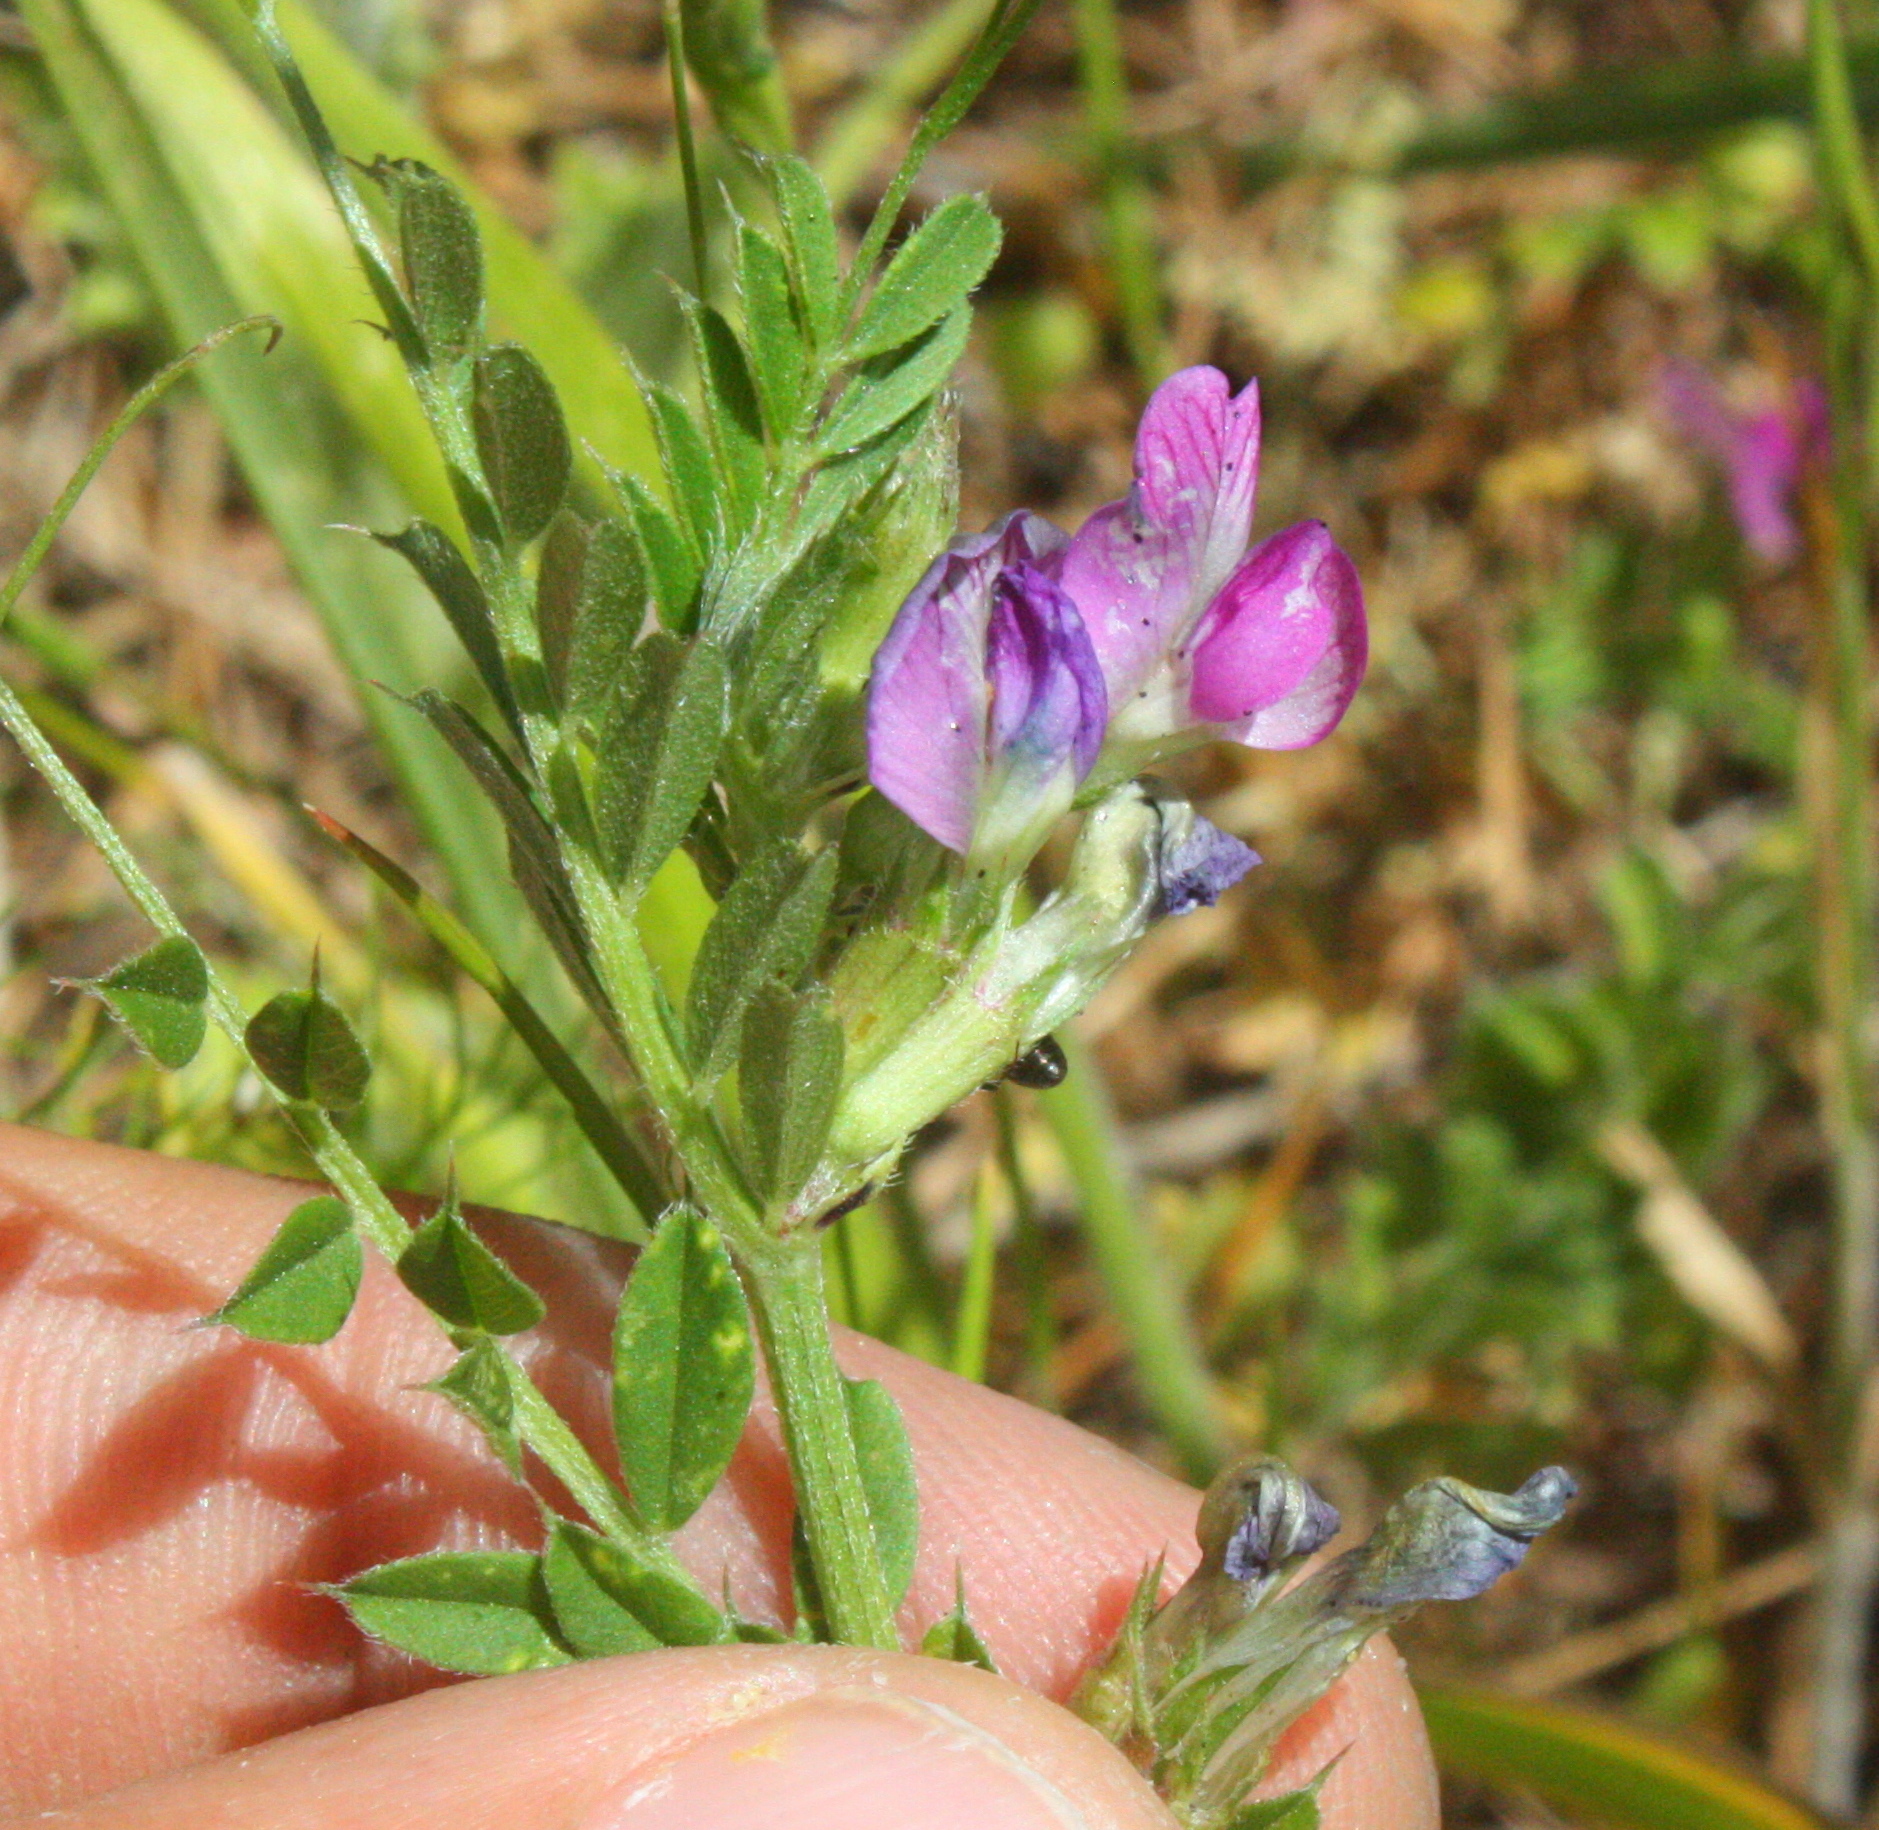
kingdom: Plantae
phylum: Tracheophyta
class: Magnoliopsida
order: Fabales
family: Fabaceae
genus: Vicia
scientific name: Vicia sativa
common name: Garden vetch
